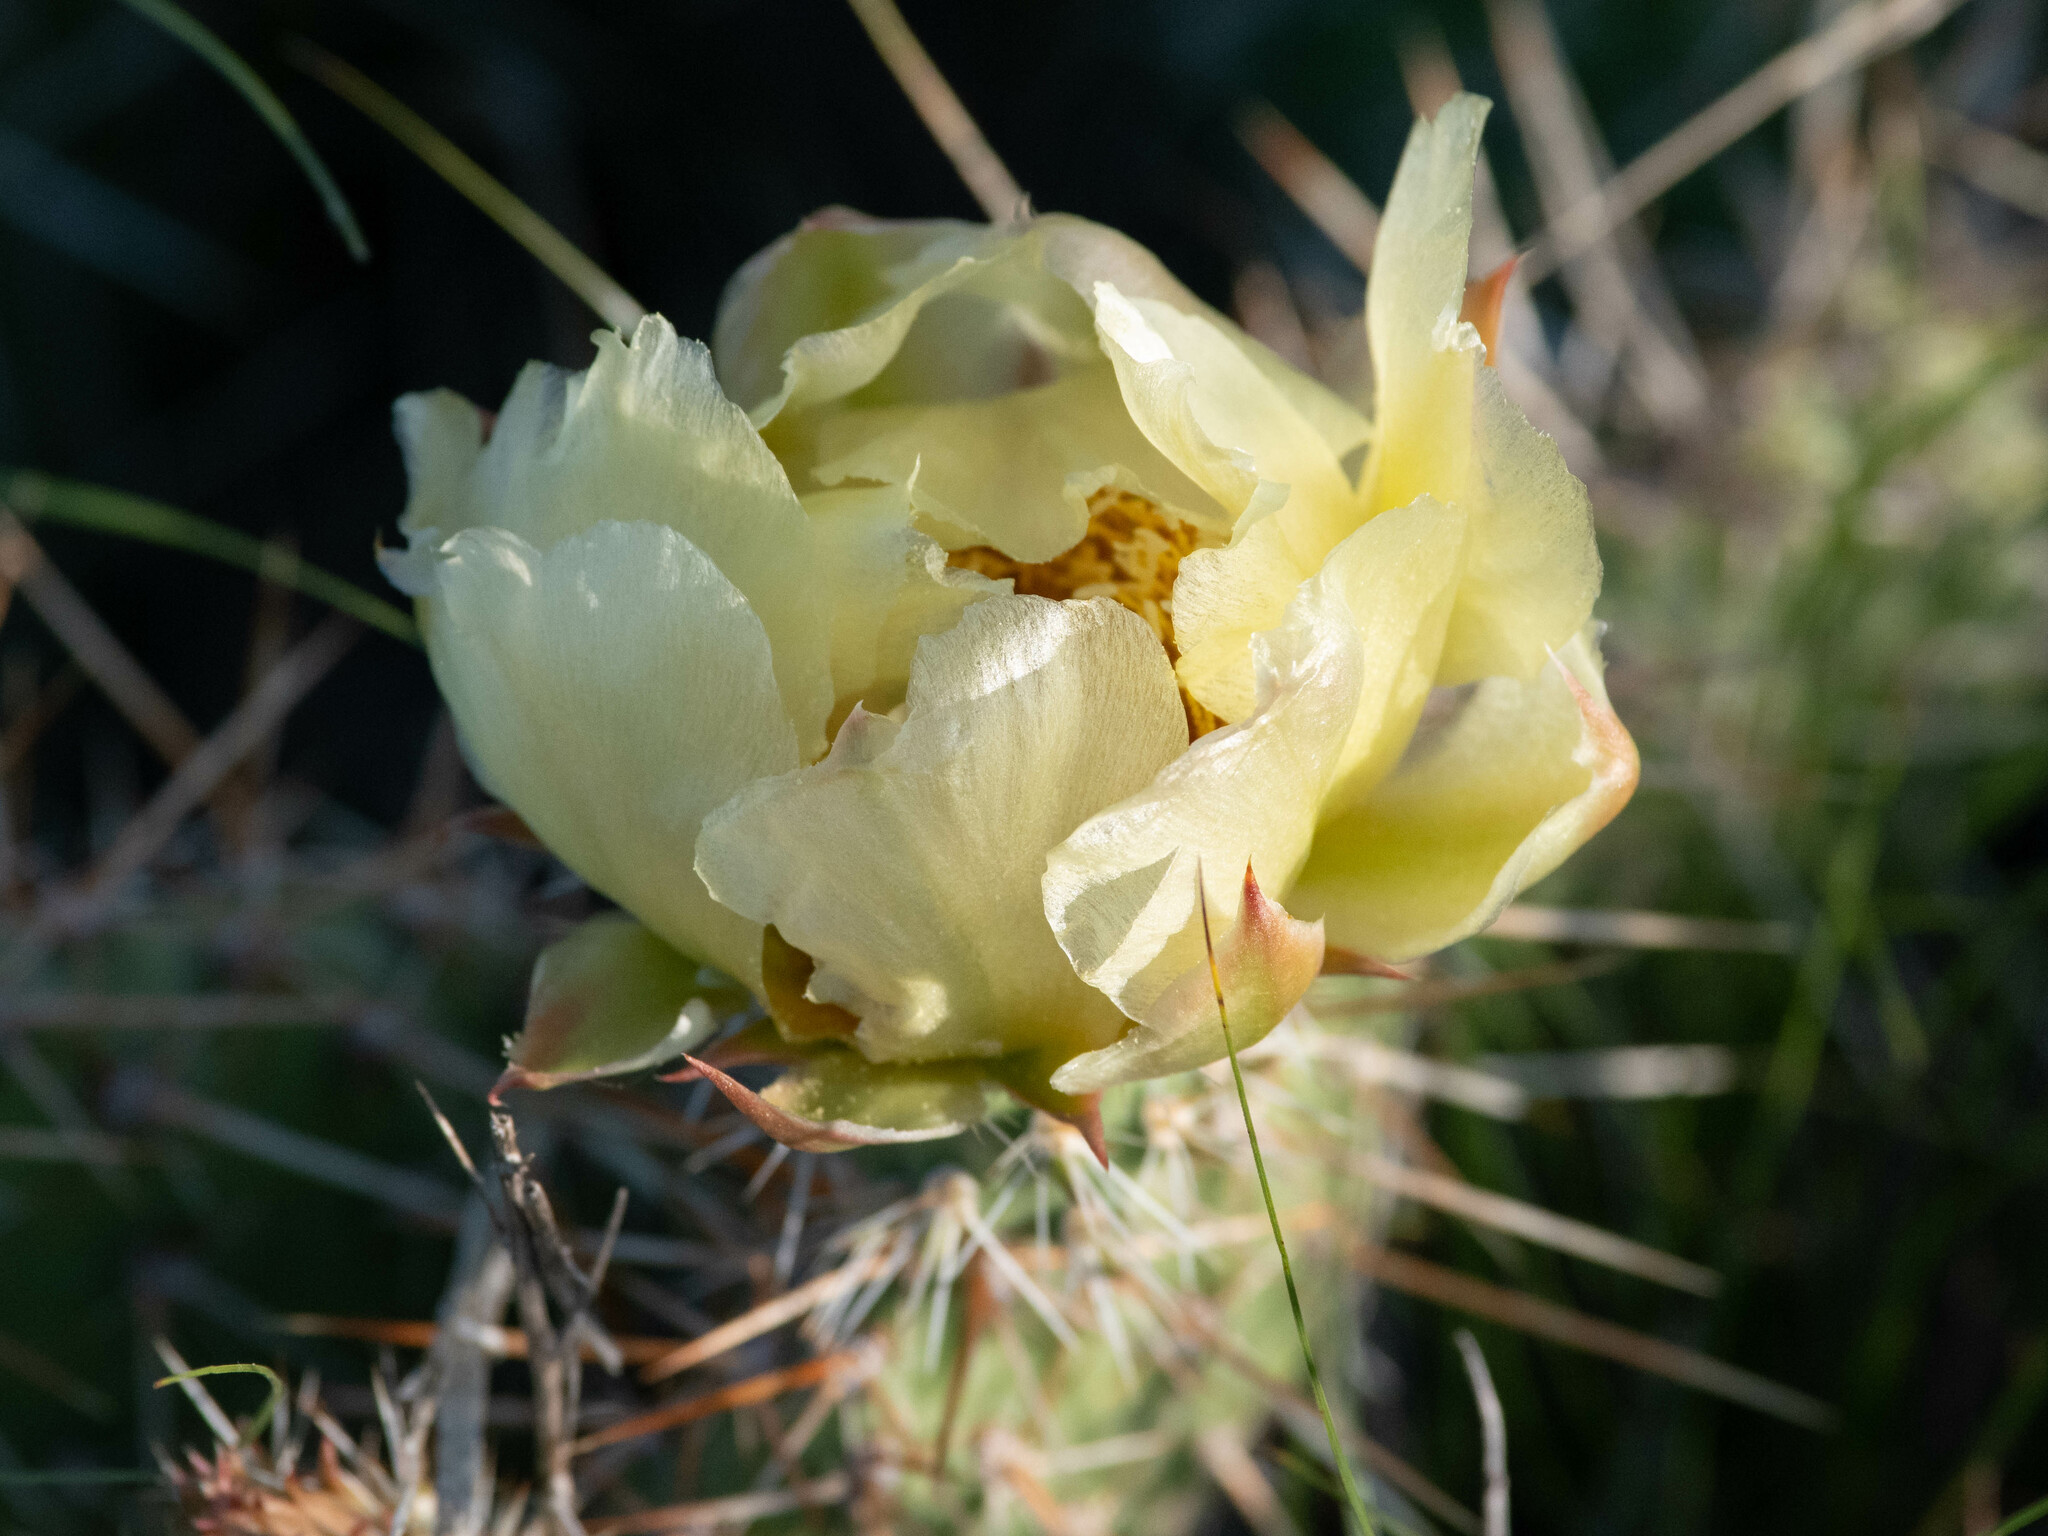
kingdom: Plantae
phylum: Tracheophyta
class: Magnoliopsida
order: Caryophyllales
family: Cactaceae
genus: Opuntia
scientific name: Opuntia polyacantha
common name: Plains prickly-pear
